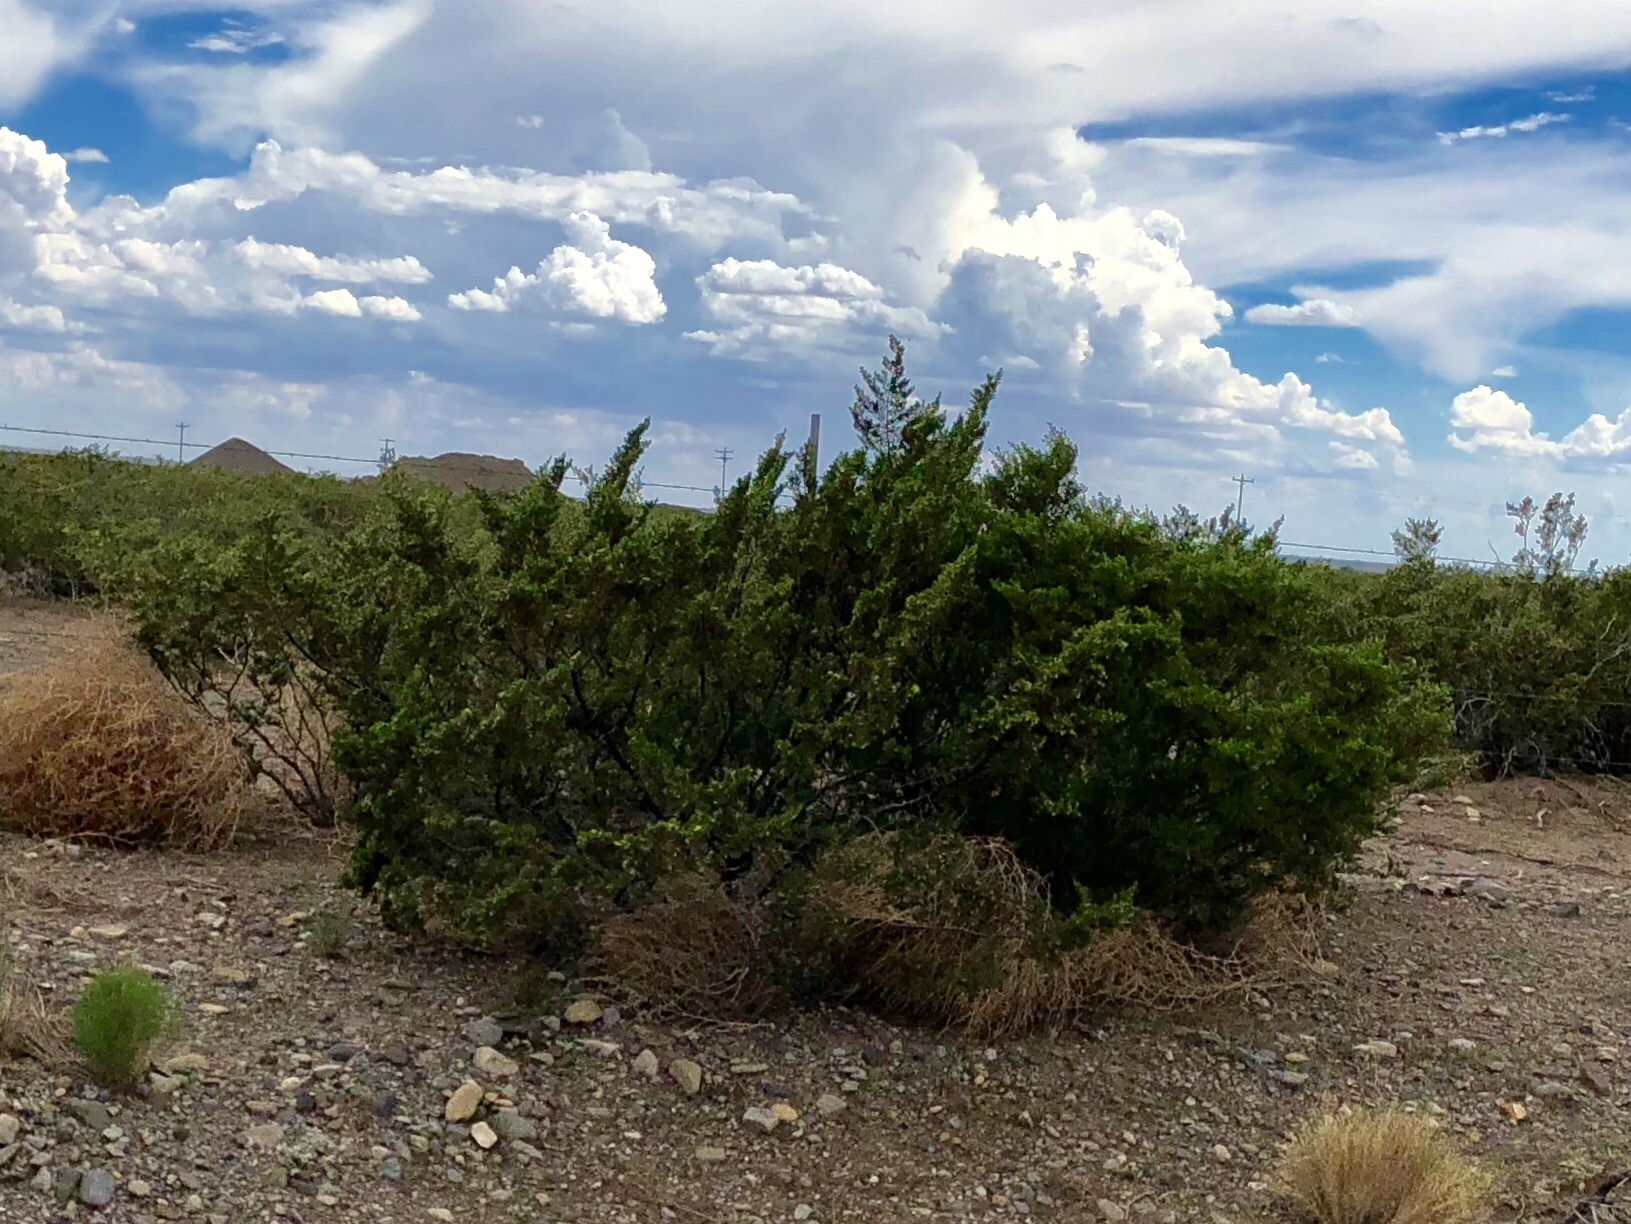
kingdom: Plantae
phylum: Tracheophyta
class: Magnoliopsida
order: Zygophyllales
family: Zygophyllaceae
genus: Larrea
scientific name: Larrea tridentata
